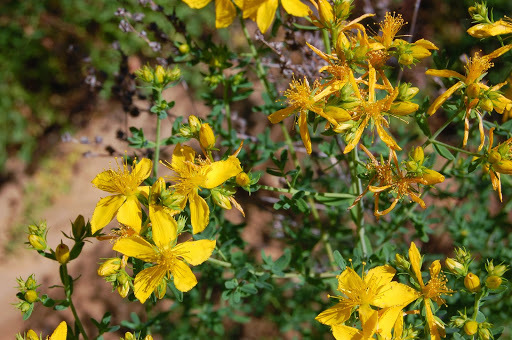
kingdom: Plantae
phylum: Tracheophyta
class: Magnoliopsida
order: Malpighiales
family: Hypericaceae
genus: Hypericum
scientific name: Hypericum perforatum
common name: Common st. johnswort
